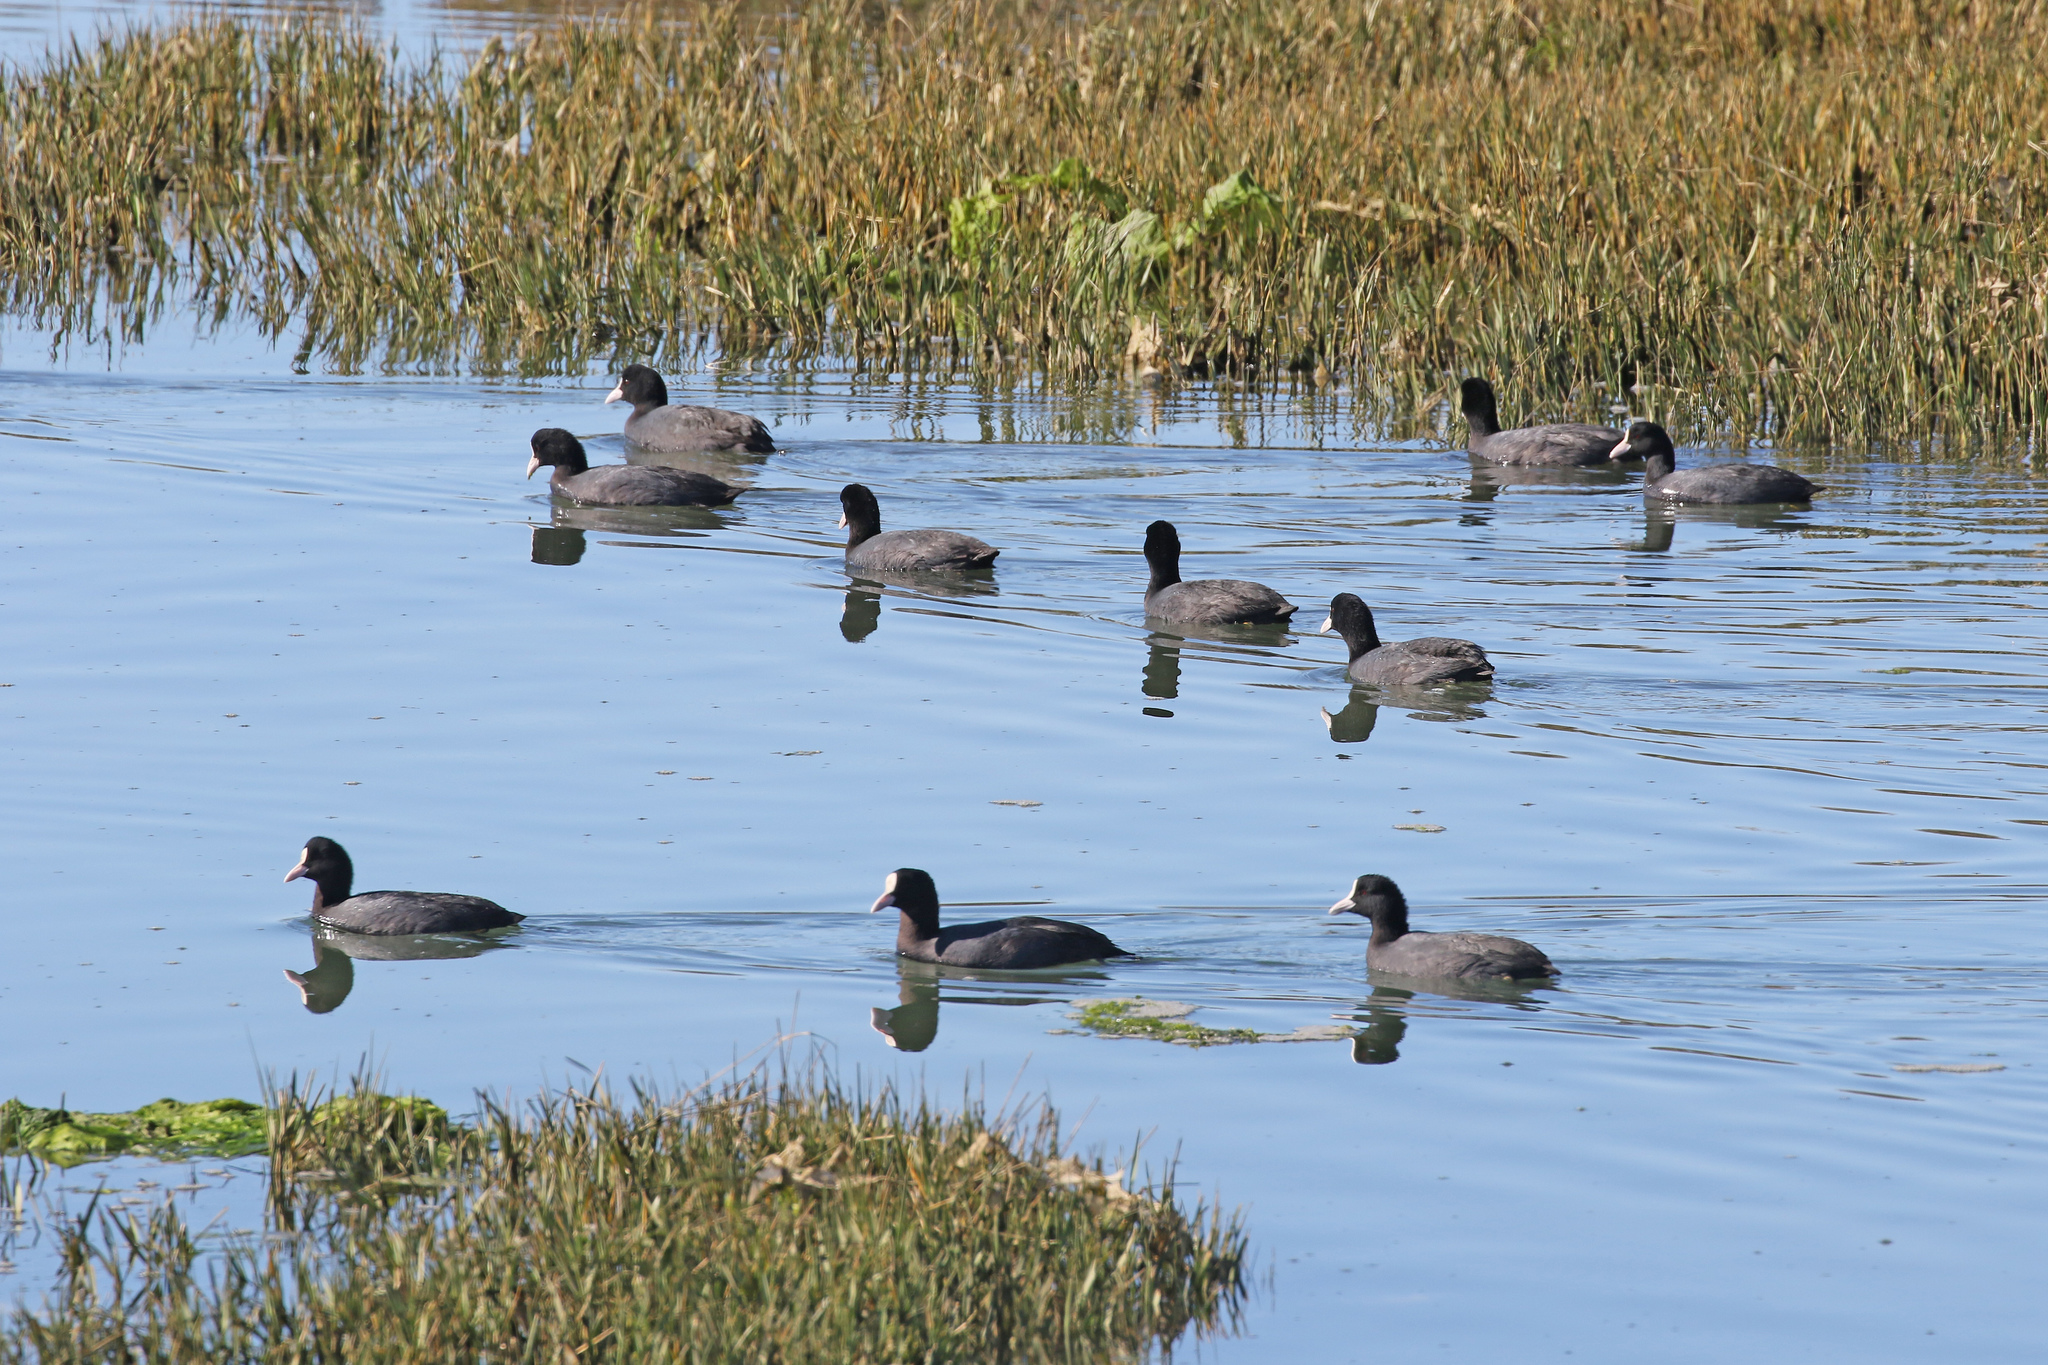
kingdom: Animalia
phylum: Chordata
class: Aves
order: Gruiformes
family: Rallidae
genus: Fulica
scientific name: Fulica atra
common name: Eurasian coot
